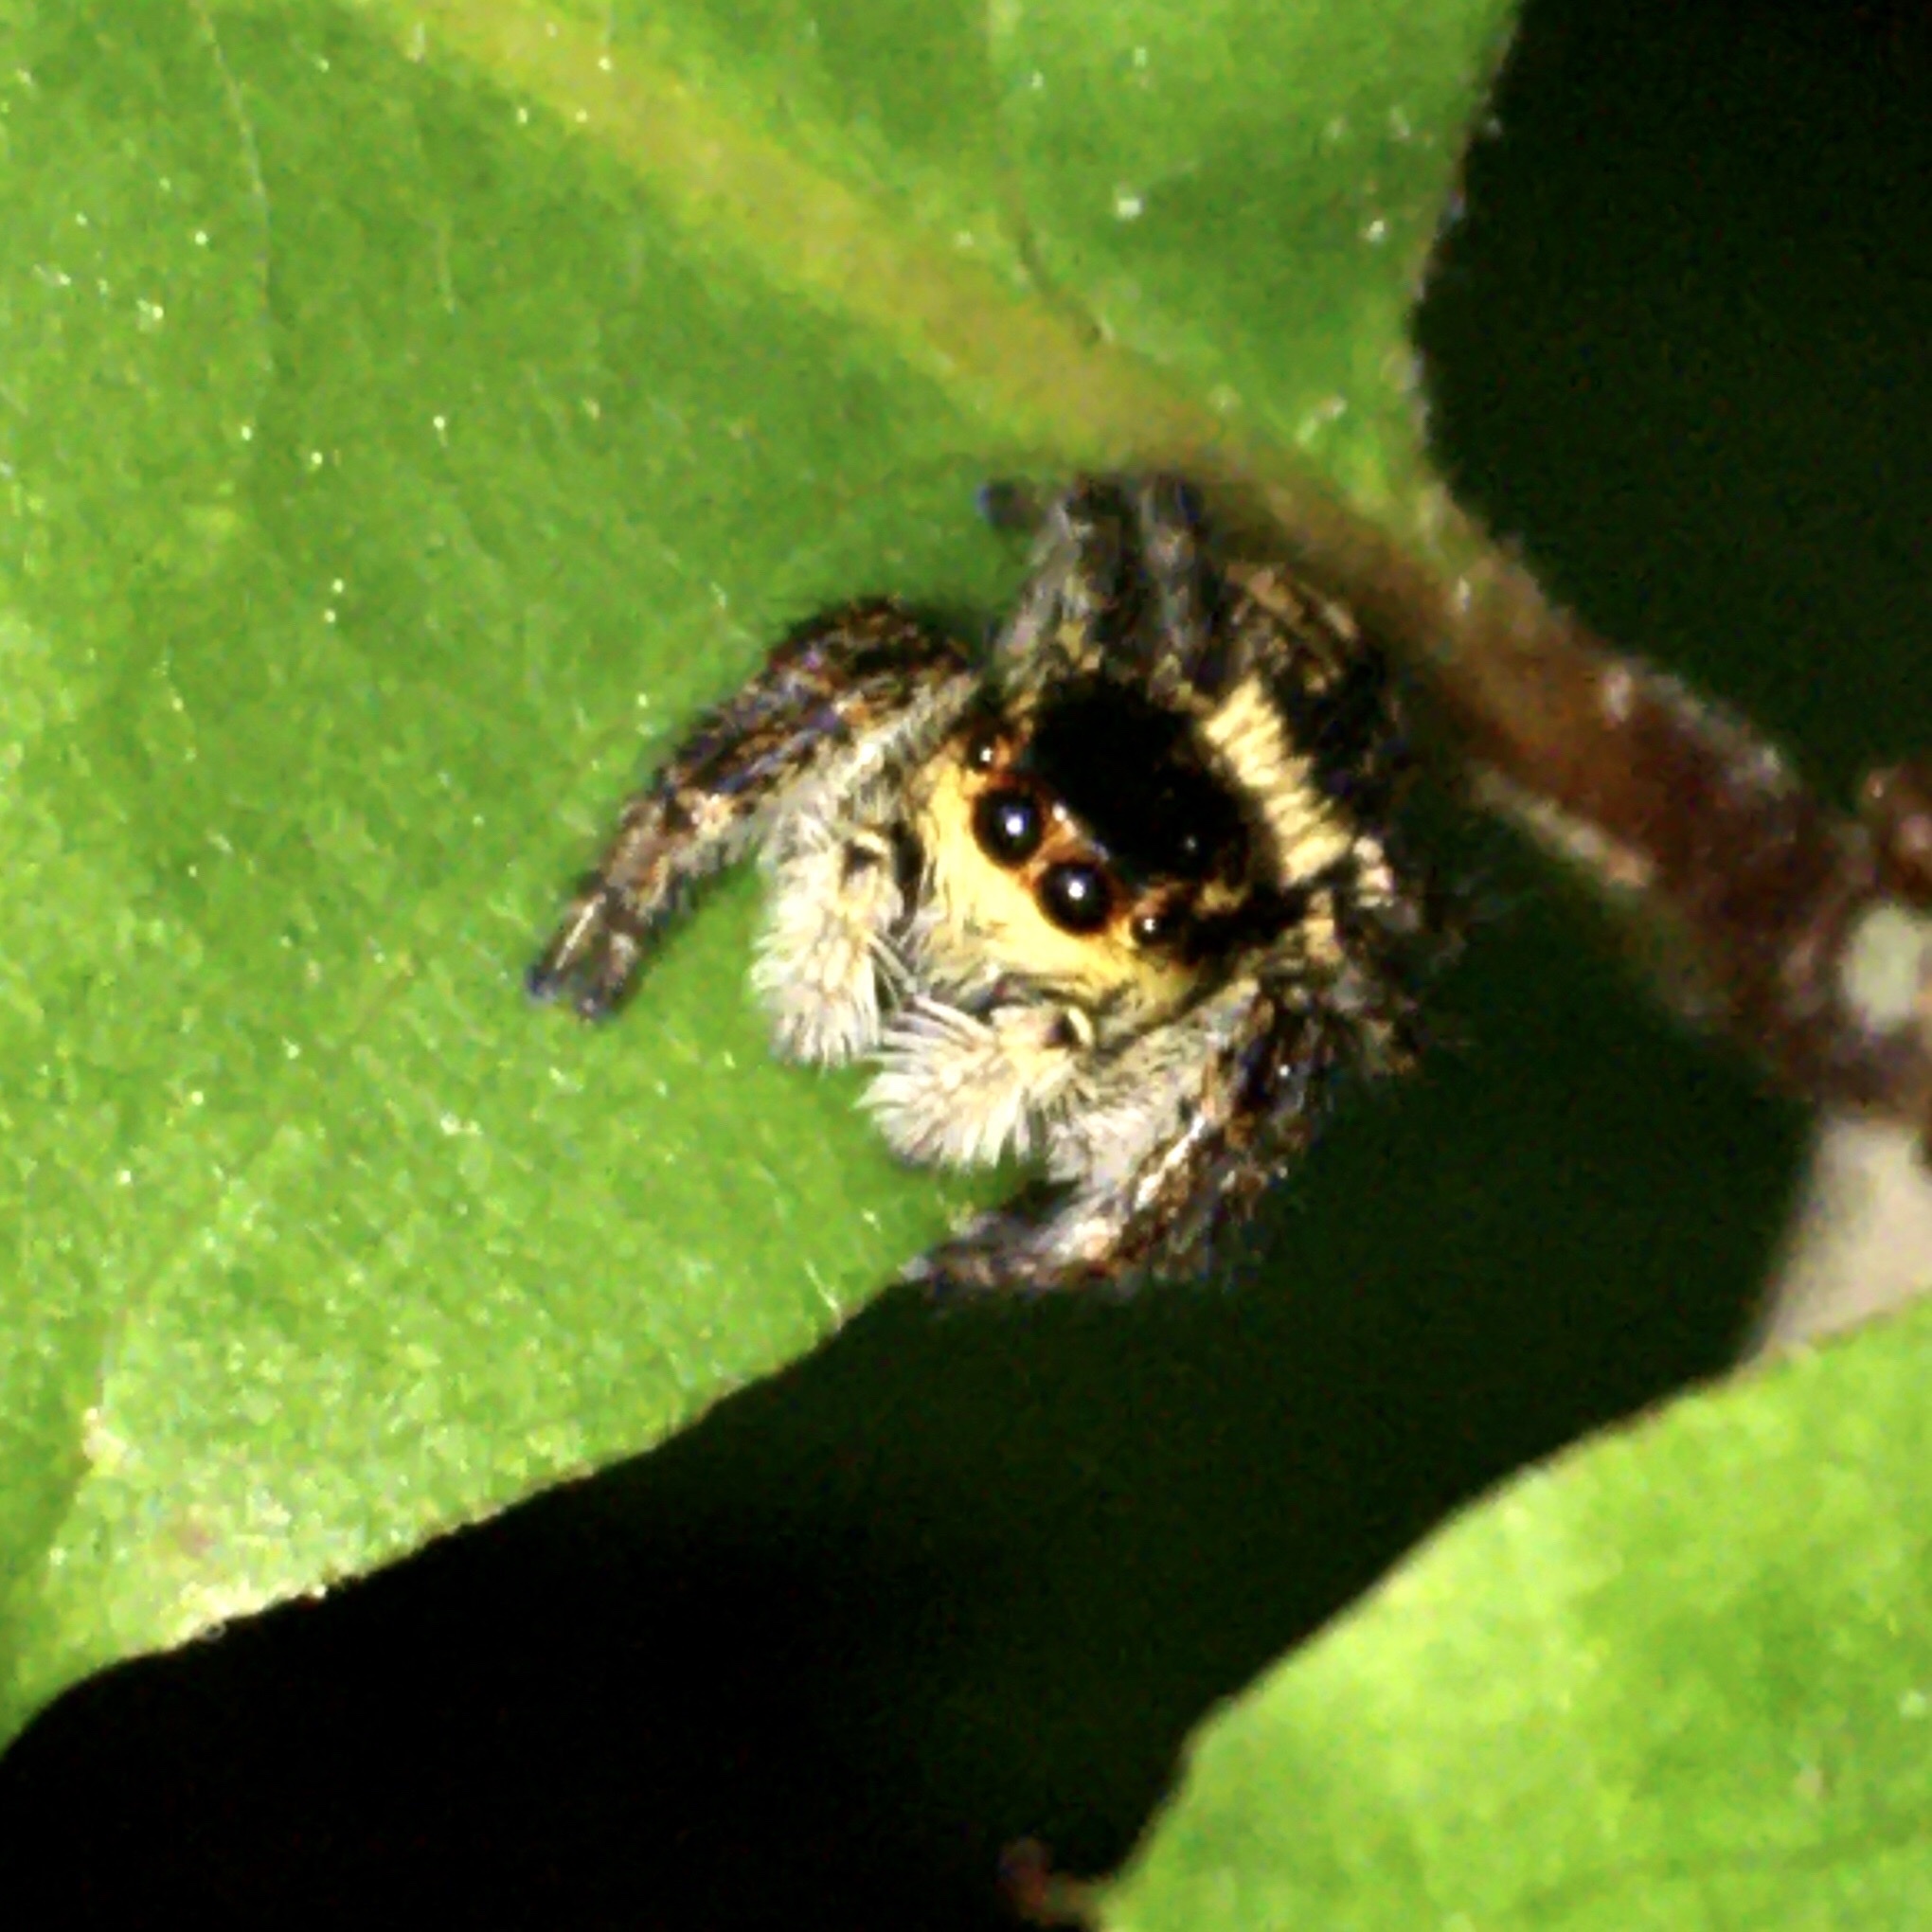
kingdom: Animalia
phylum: Arthropoda
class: Arachnida
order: Araneae
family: Salticidae
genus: Carrhotus
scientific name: Carrhotus xanthogramma
